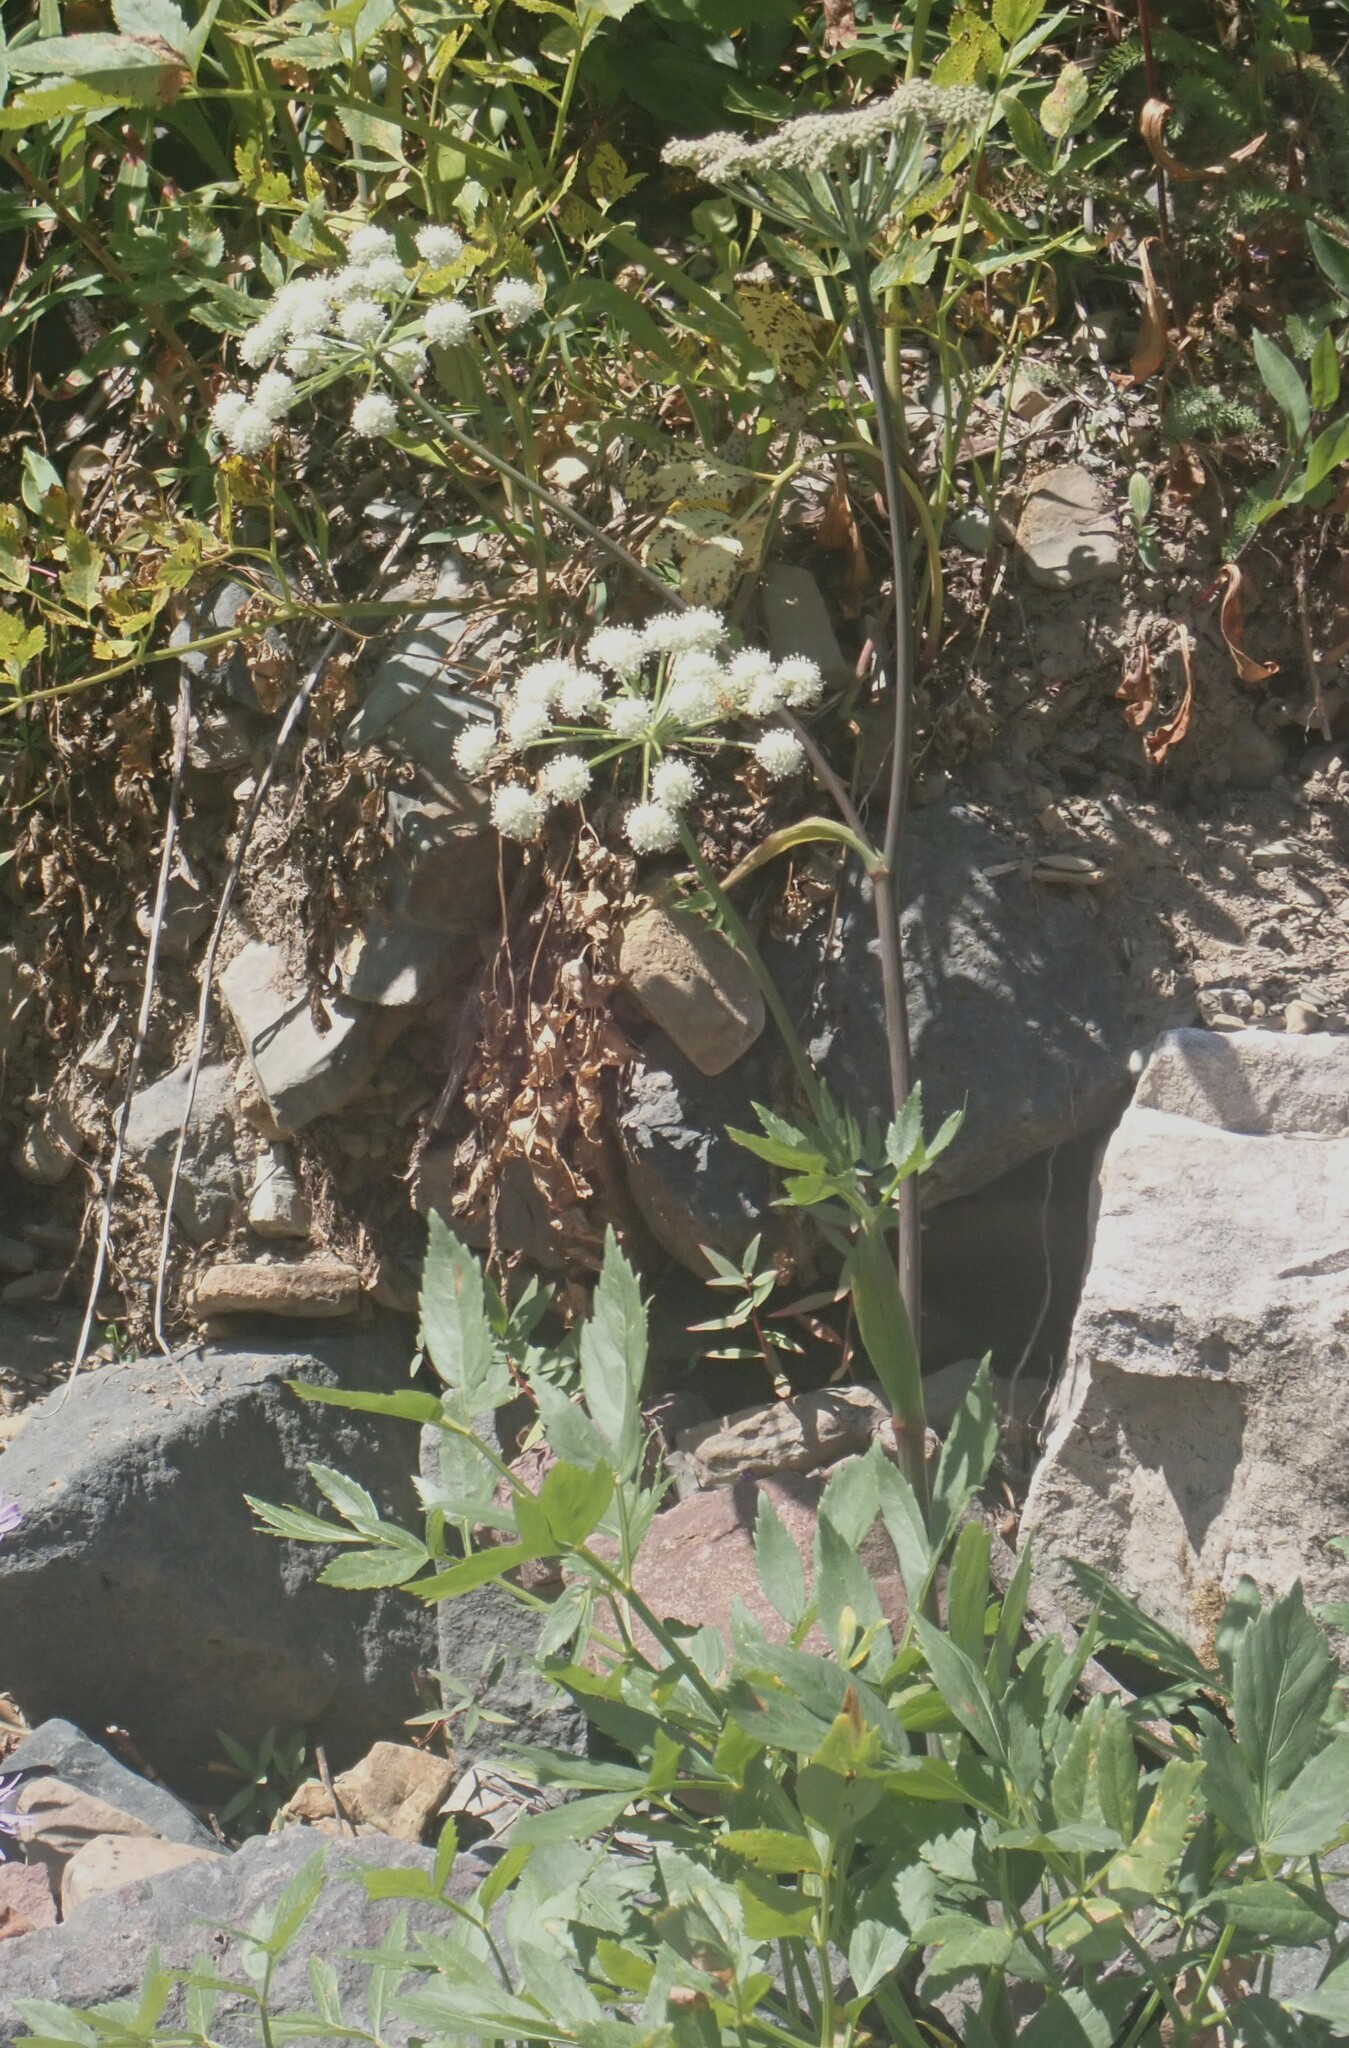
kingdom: Plantae
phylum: Tracheophyta
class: Magnoliopsida
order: Apiales
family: Apiaceae
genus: Angelica
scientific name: Angelica arguta
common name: Lyall's angelica
